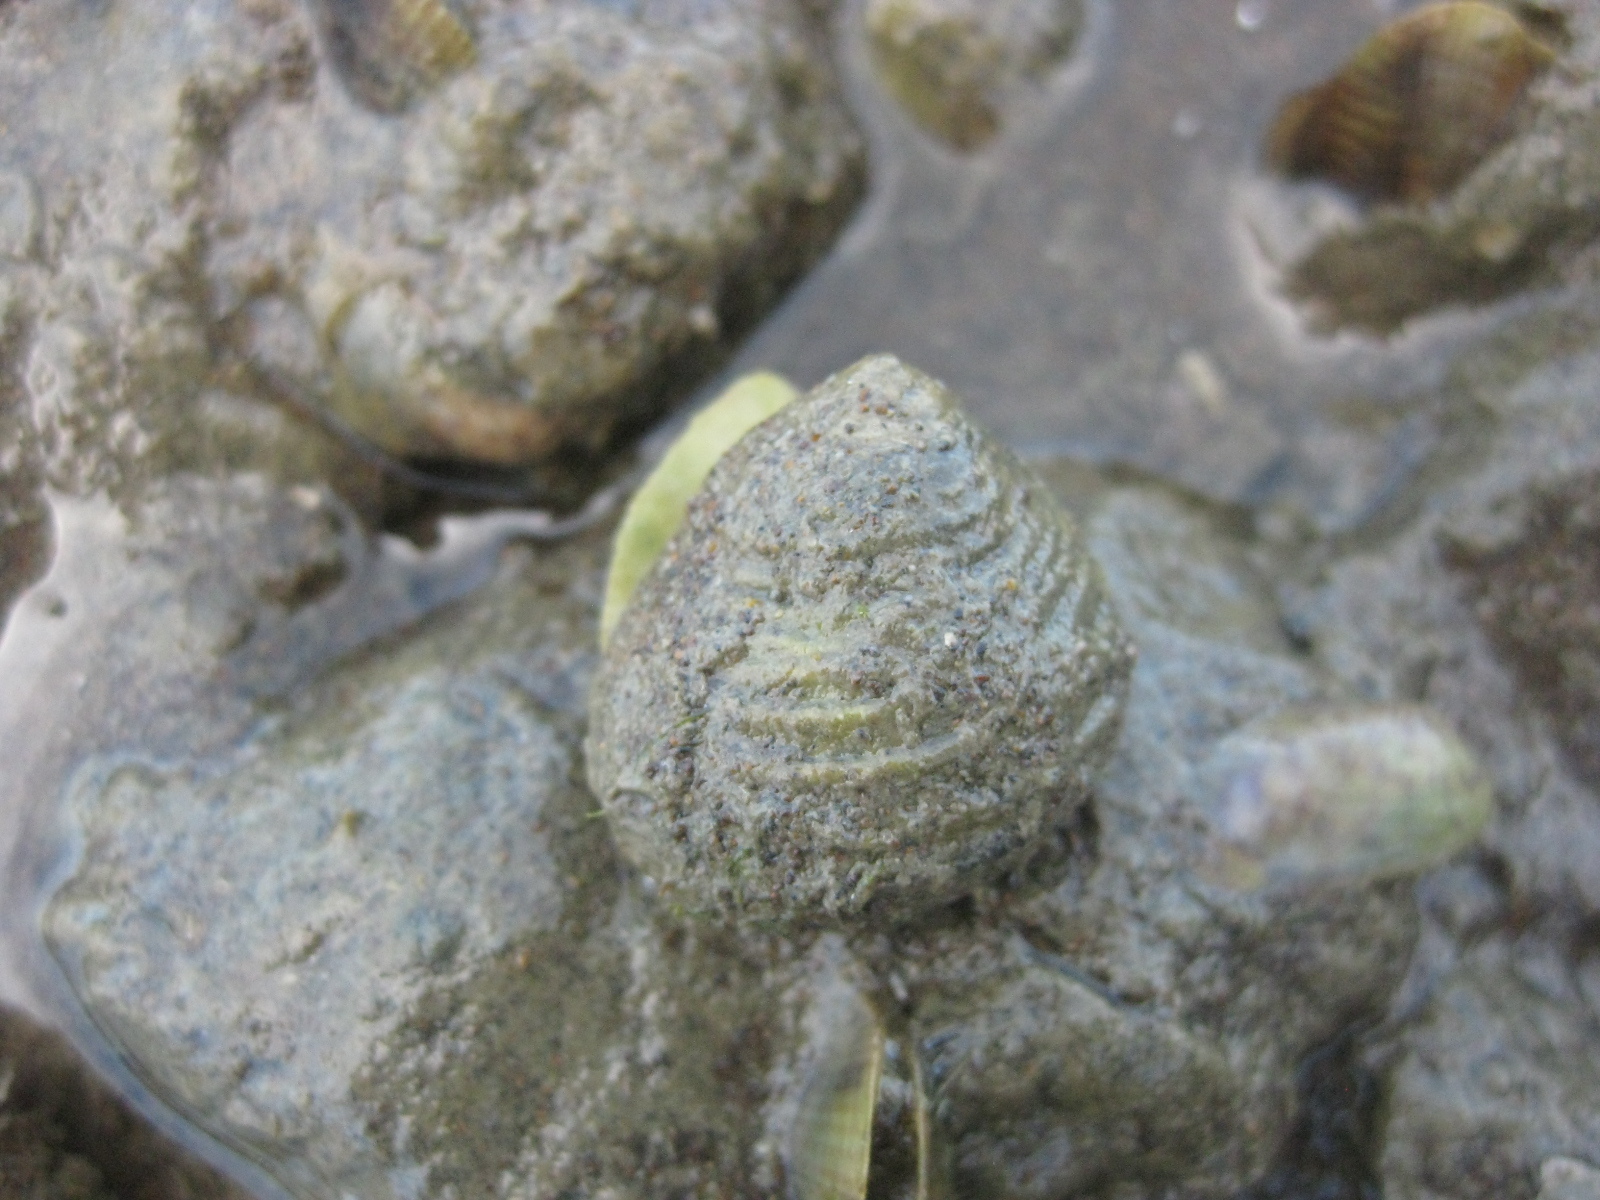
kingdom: Animalia
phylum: Mollusca
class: Gastropoda
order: Trochida
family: Trochidae
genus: Diloma
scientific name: Diloma subrostratum
